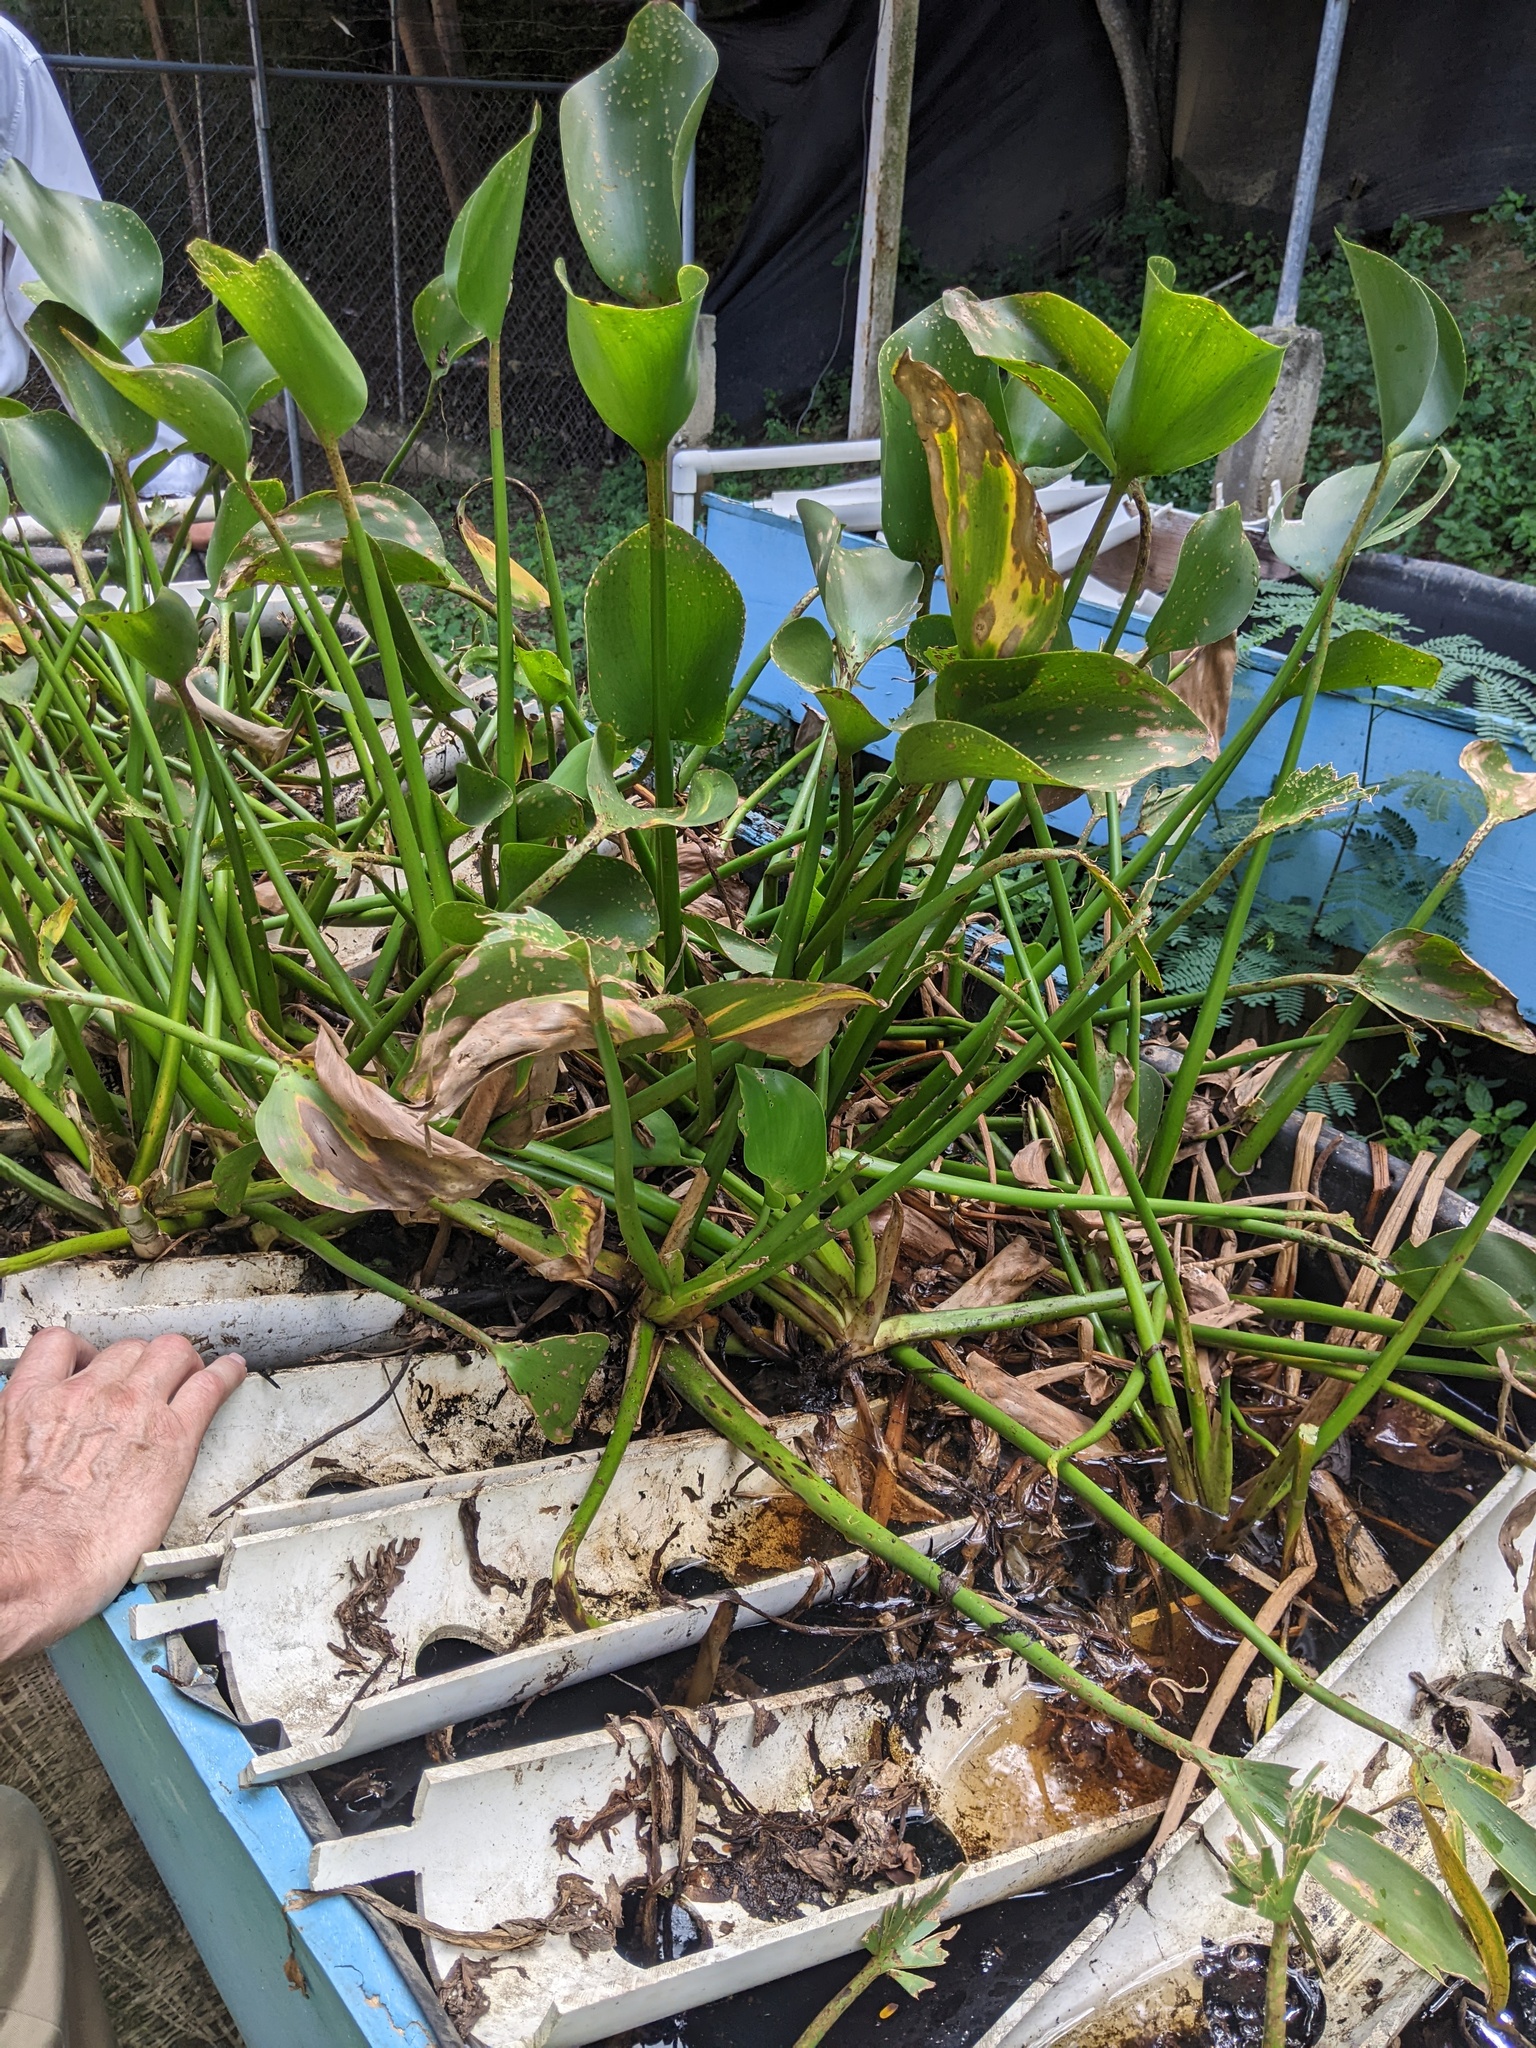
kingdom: Plantae
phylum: Tracheophyta
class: Liliopsida
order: Commelinales
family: Pontederiaceae
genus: Pontederia
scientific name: Pontederia crassipes
